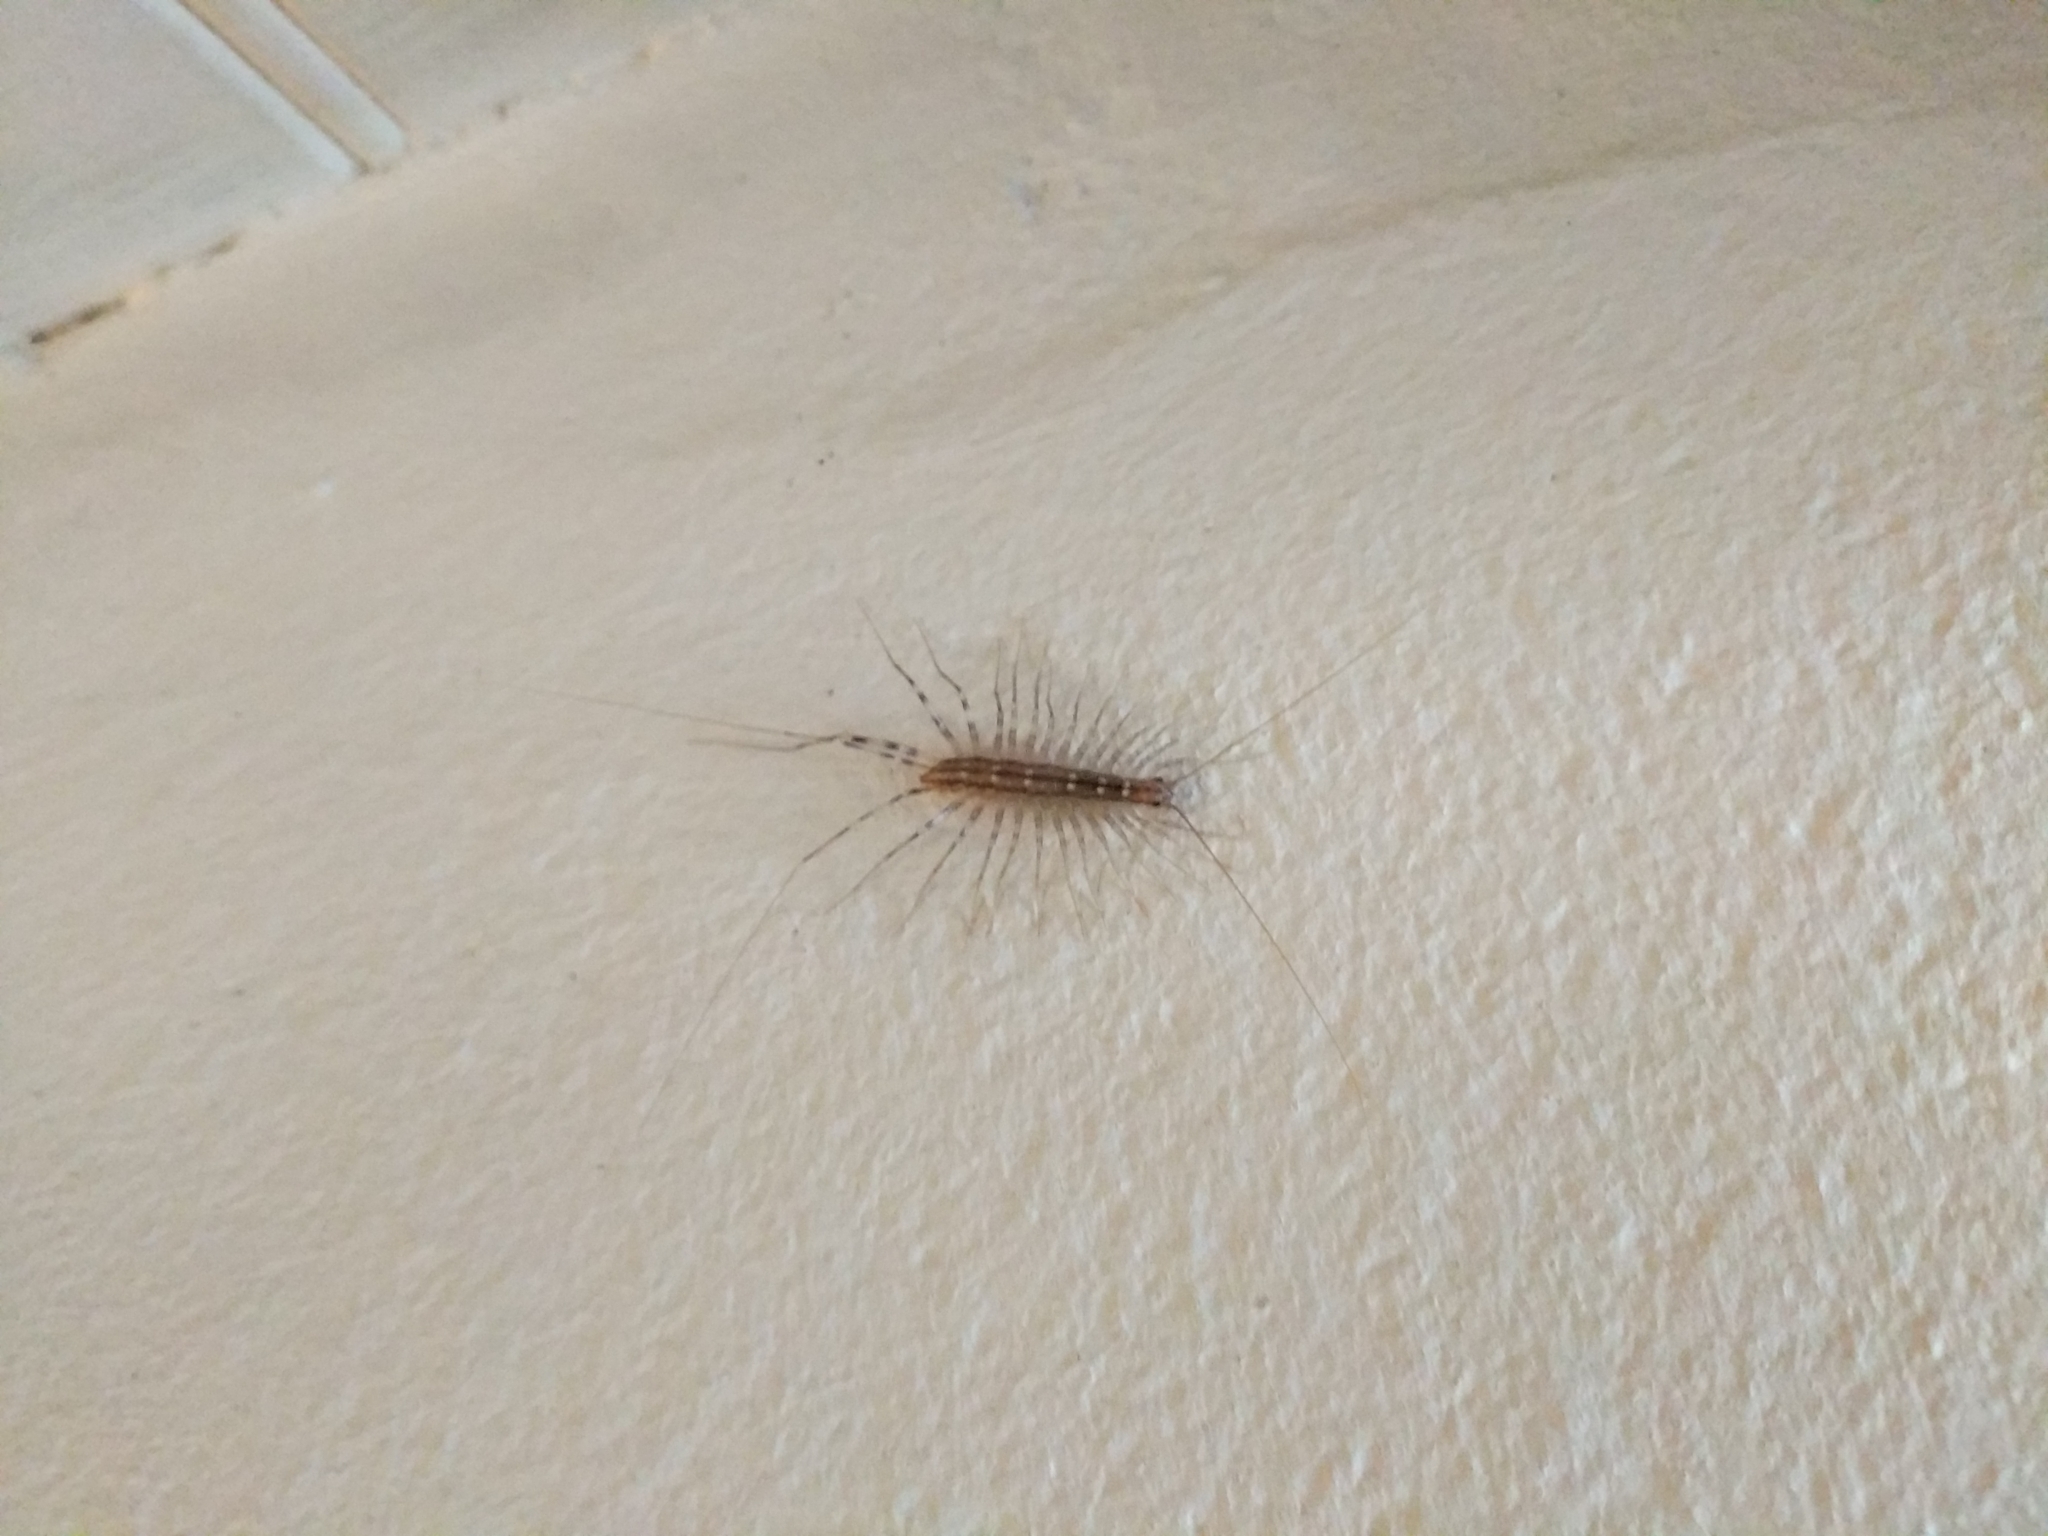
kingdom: Animalia
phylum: Arthropoda
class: Chilopoda
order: Scutigeromorpha
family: Scutigeridae
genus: Scutigera
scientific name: Scutigera coleoptrata
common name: House centipede
